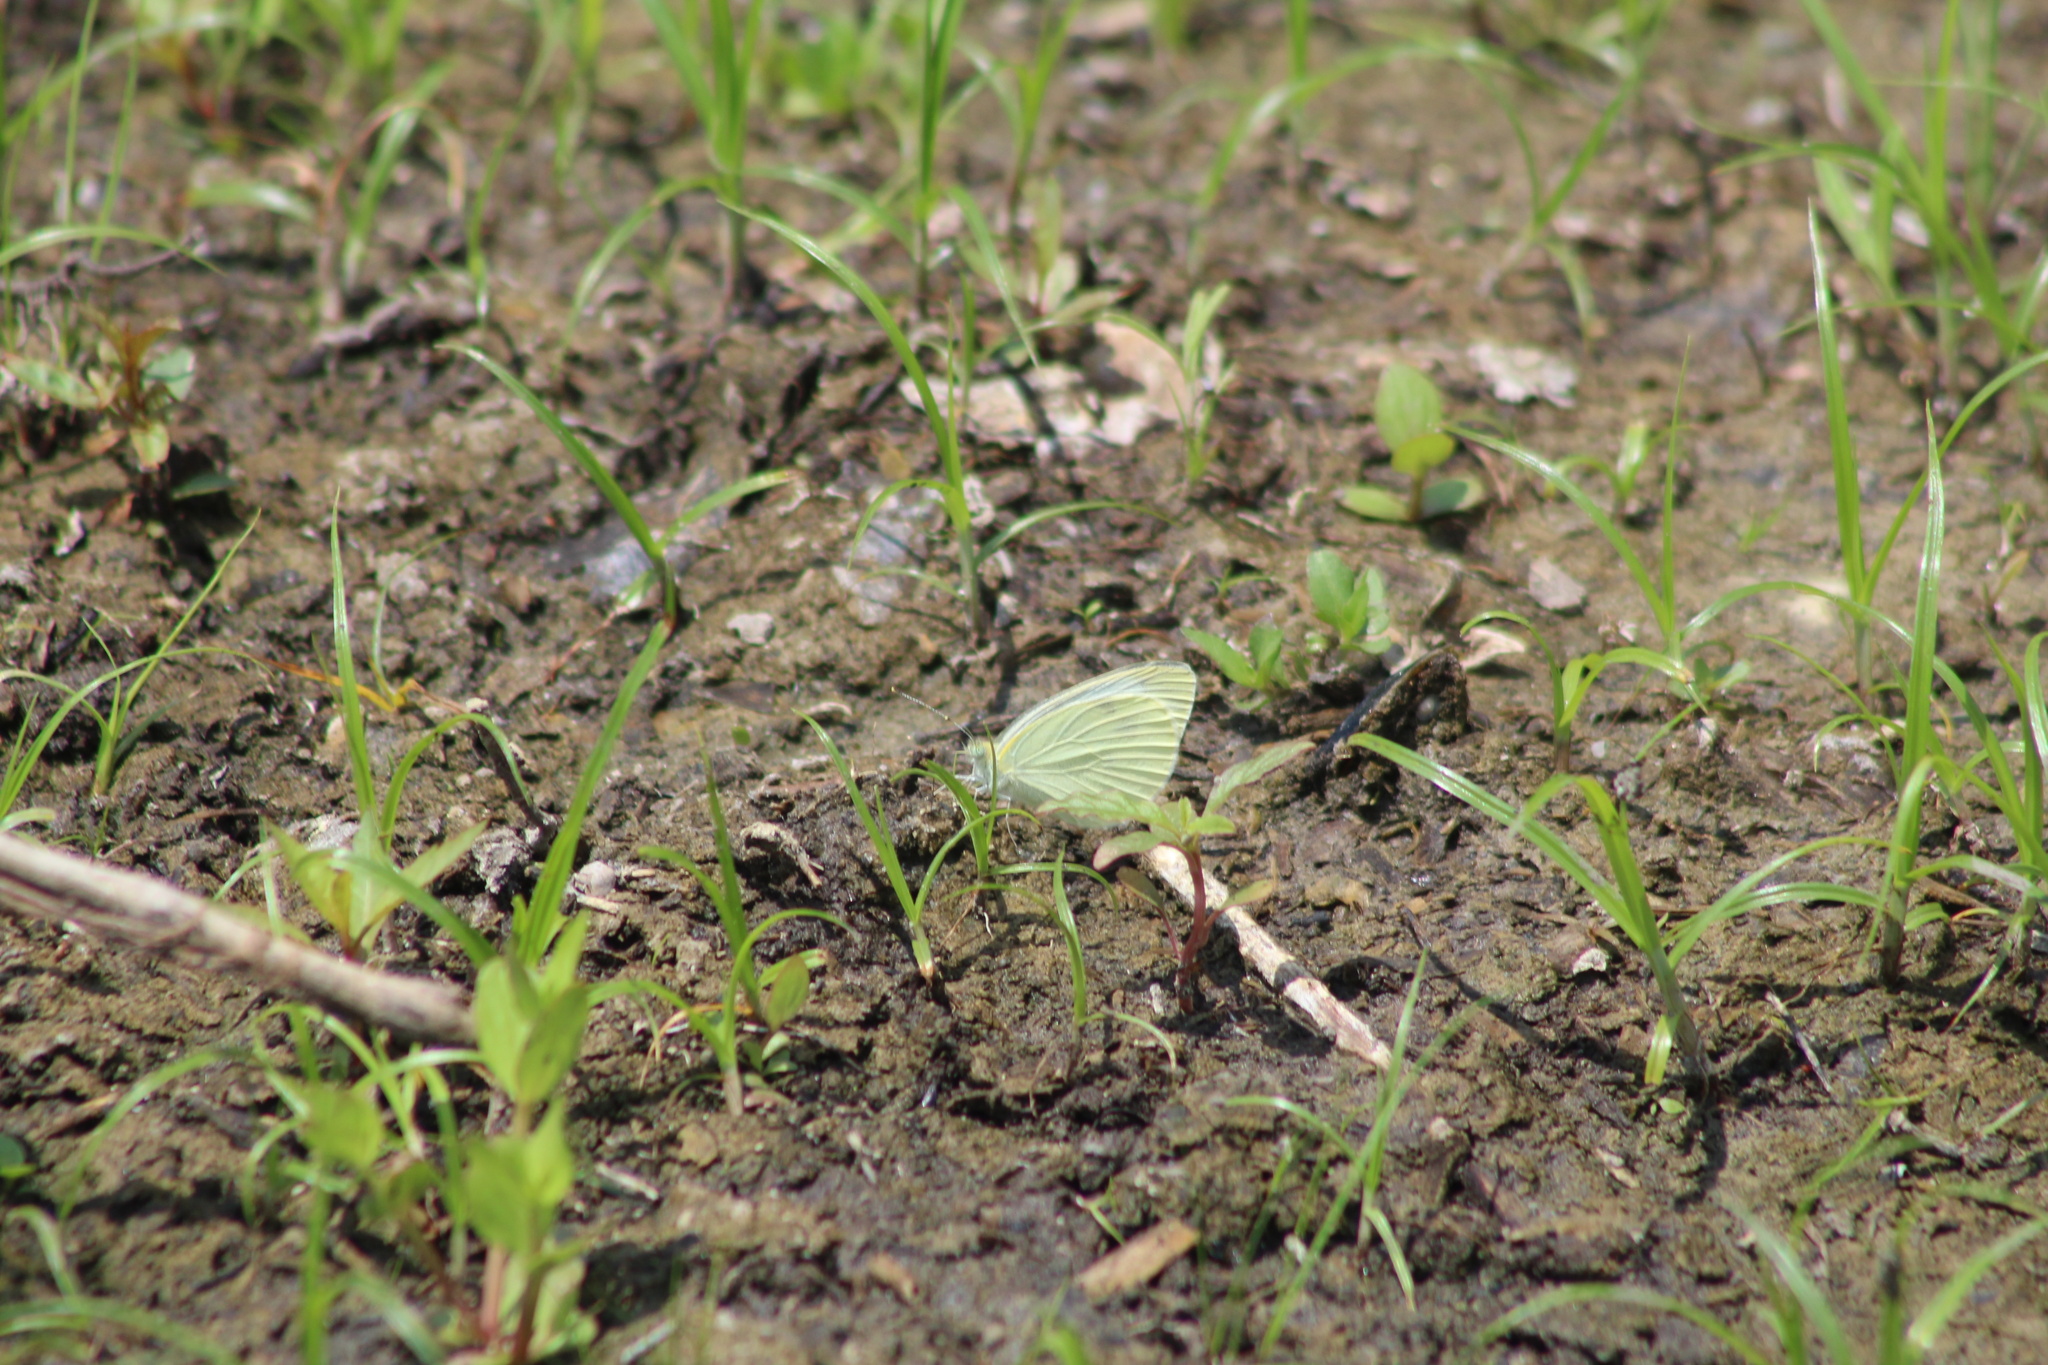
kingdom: Animalia
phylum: Arthropoda
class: Insecta
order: Lepidoptera
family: Pieridae
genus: Pieris
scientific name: Pieris rapae
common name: Small white
